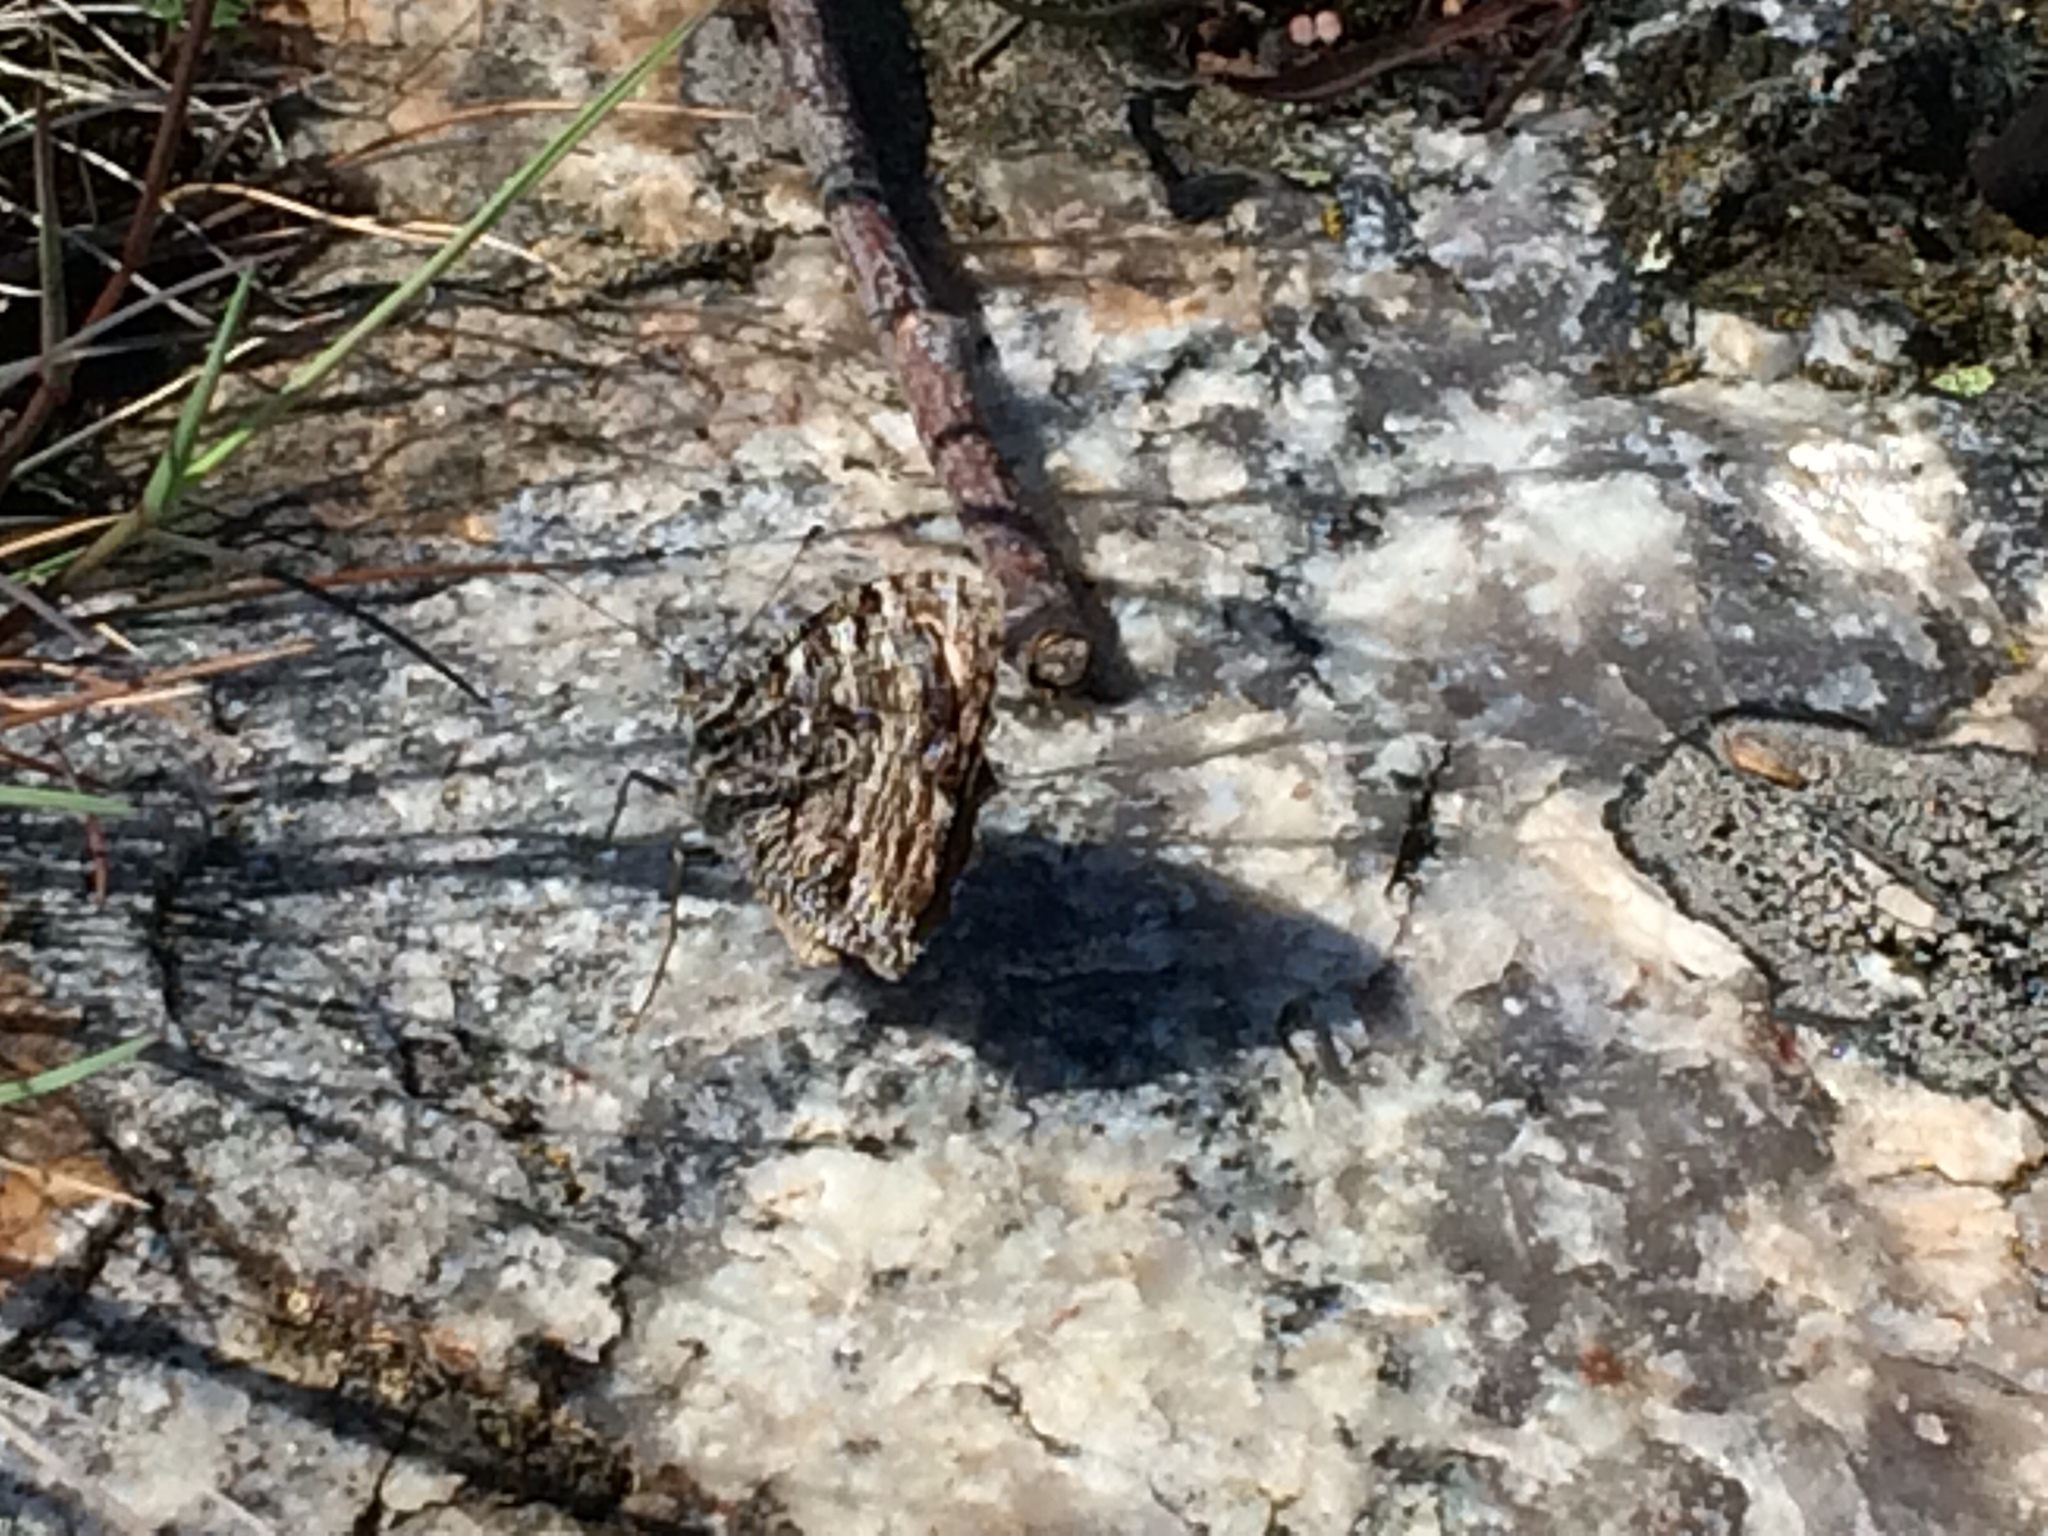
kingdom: Animalia
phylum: Arthropoda
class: Insecta
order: Lepidoptera
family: Nymphalidae
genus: Hipparchia
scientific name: Hipparchia semele
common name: Grayling
